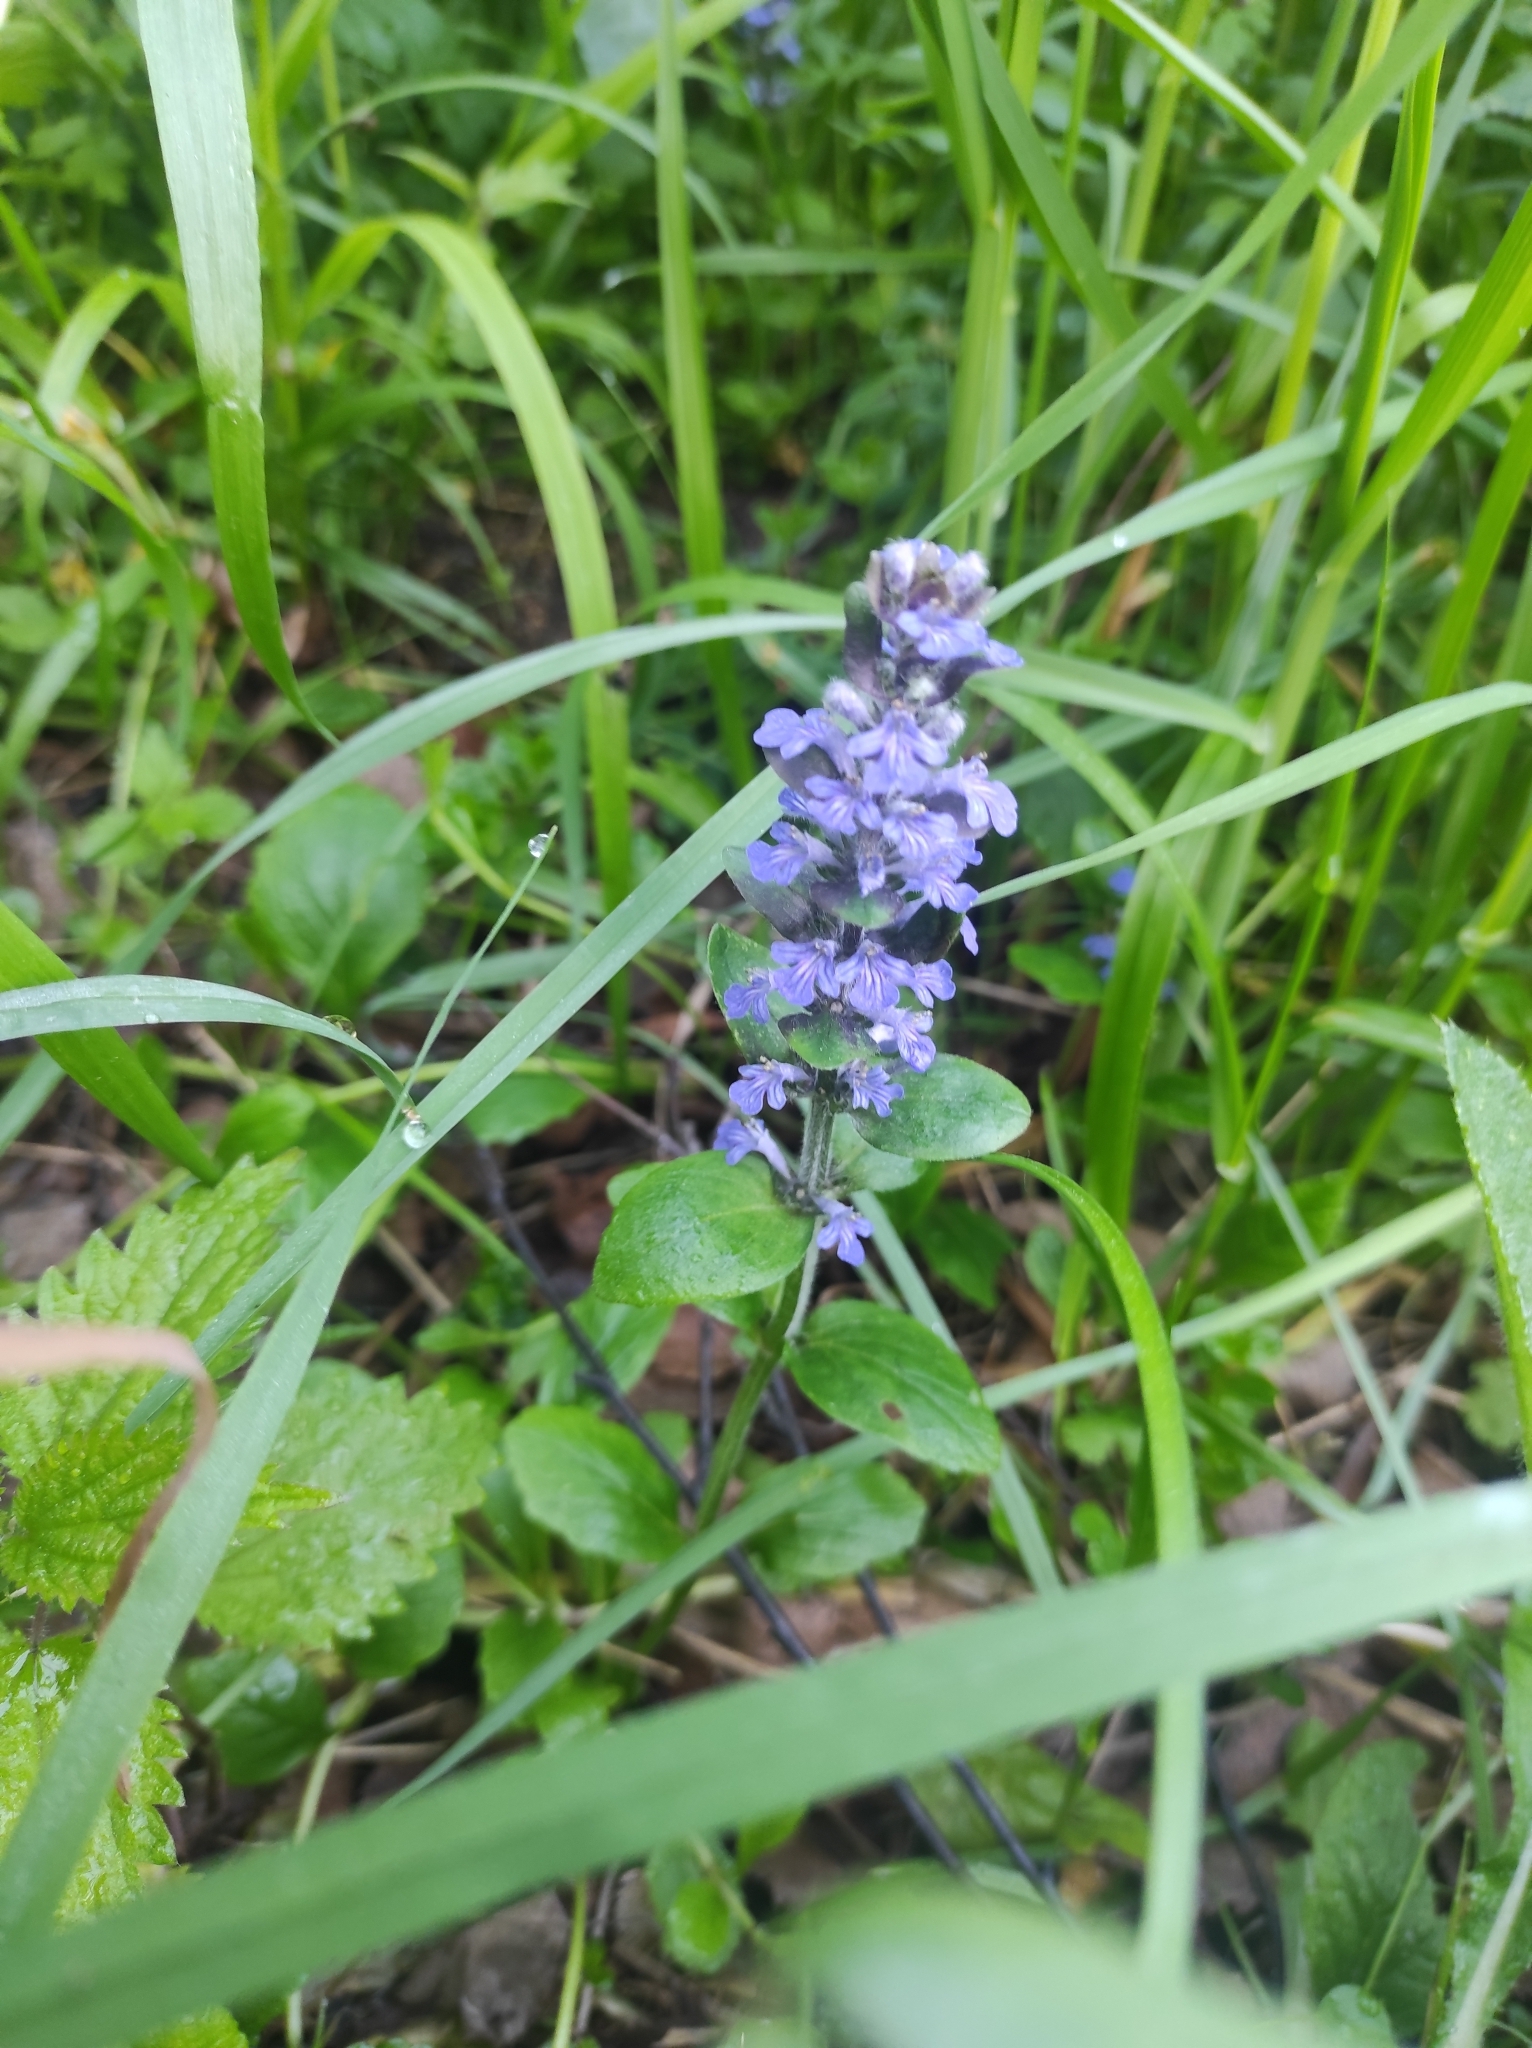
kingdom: Plantae
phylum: Tracheophyta
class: Magnoliopsida
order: Lamiales
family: Lamiaceae
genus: Ajuga
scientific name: Ajuga reptans
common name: Bugle
